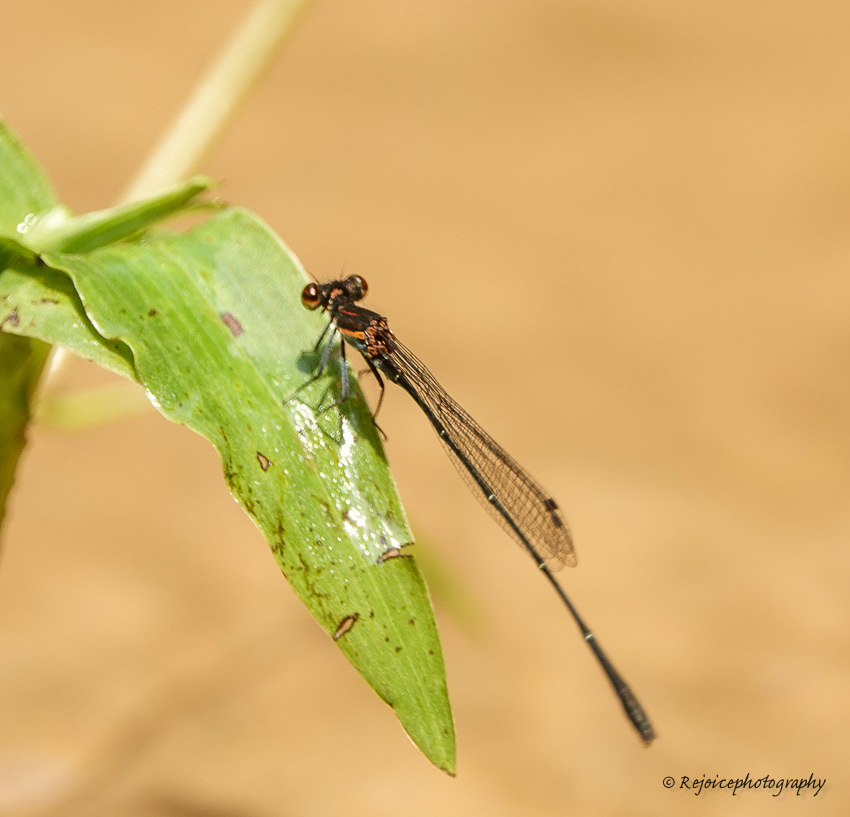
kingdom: Animalia
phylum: Arthropoda
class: Insecta
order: Odonata
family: Platycnemididae
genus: Prodasineura
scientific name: Prodasineura verticalis
